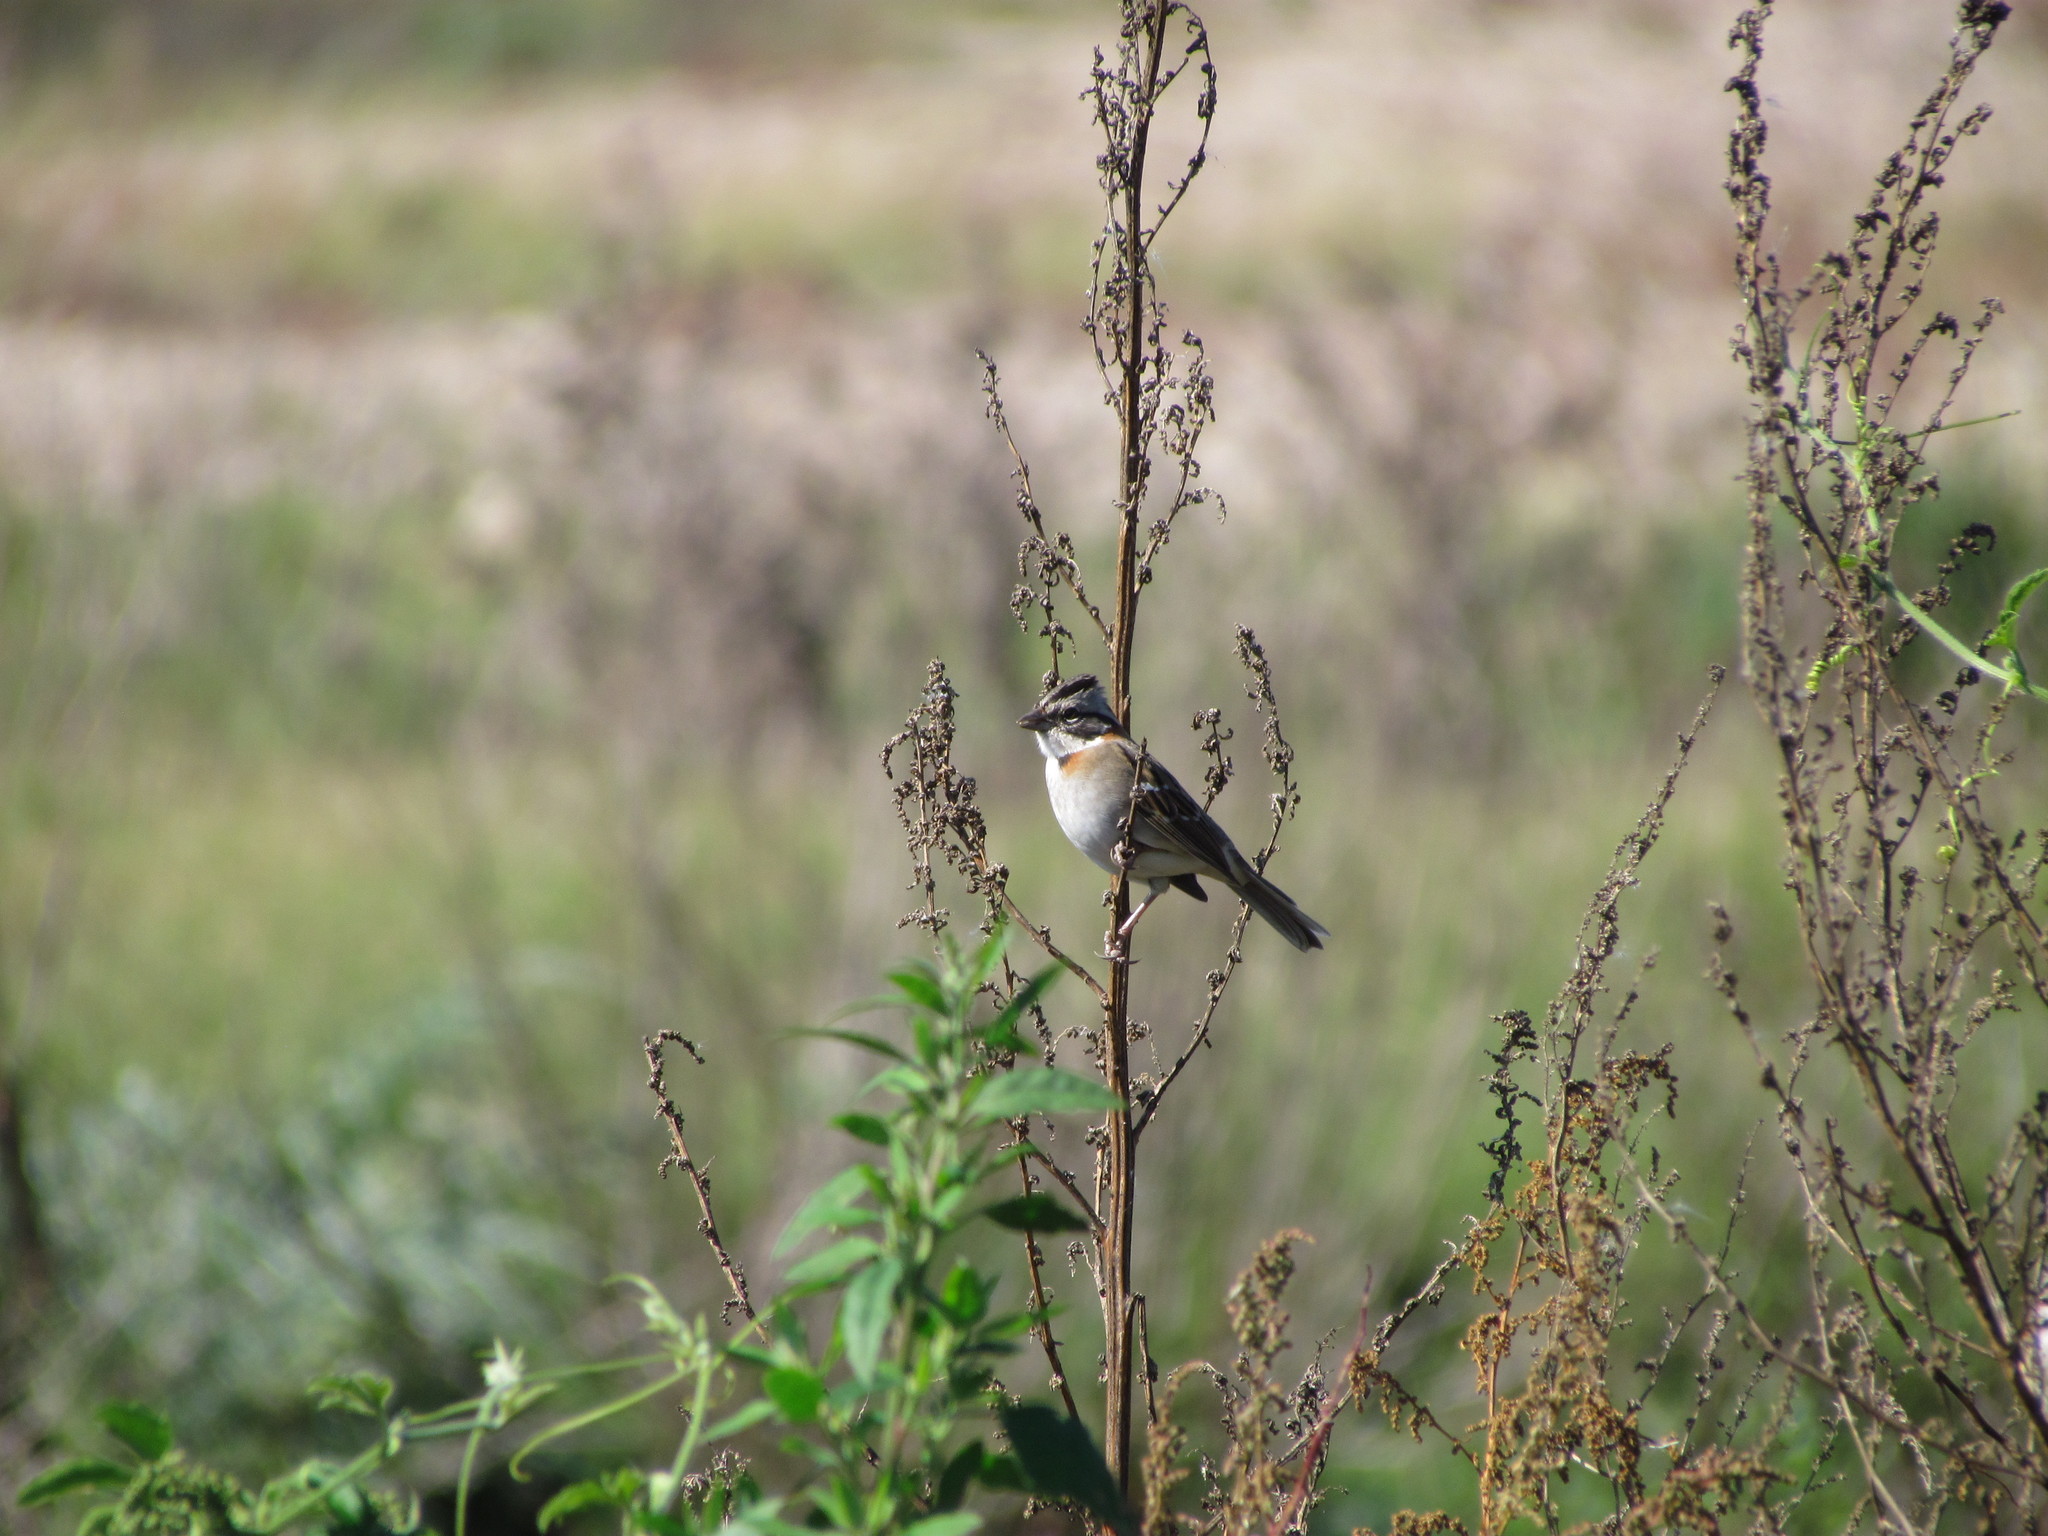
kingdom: Animalia
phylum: Chordata
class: Aves
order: Passeriformes
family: Passerellidae
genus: Zonotrichia
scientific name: Zonotrichia capensis
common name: Rufous-collared sparrow
